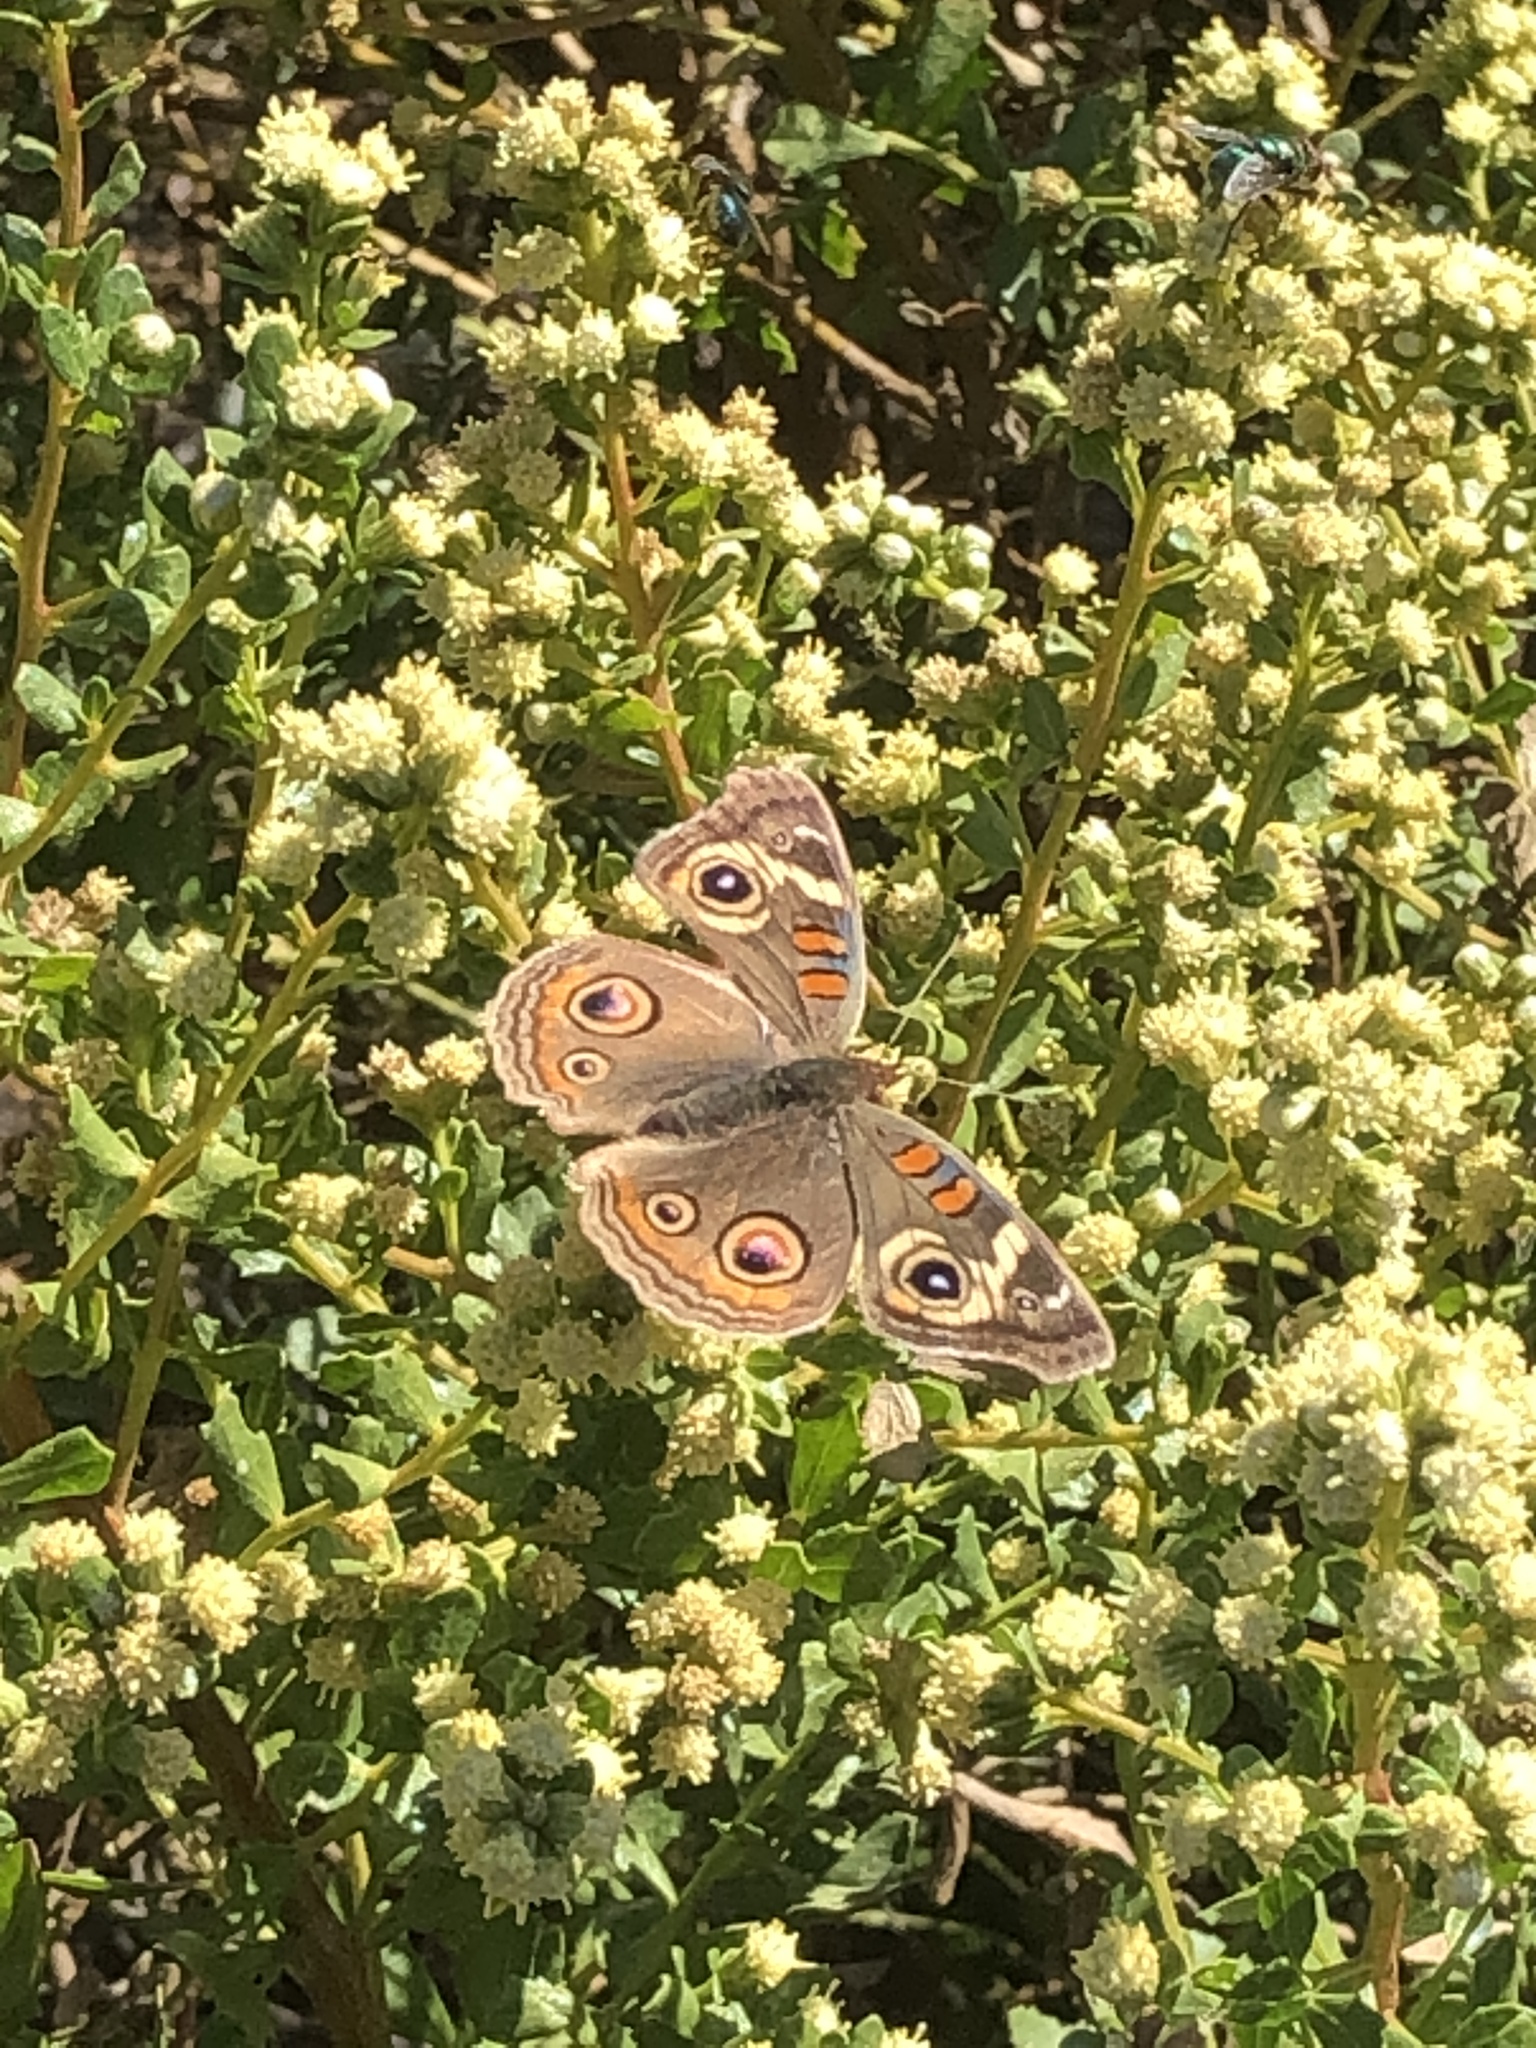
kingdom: Animalia
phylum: Arthropoda
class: Insecta
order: Lepidoptera
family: Nymphalidae
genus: Junonia
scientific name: Junonia grisea
